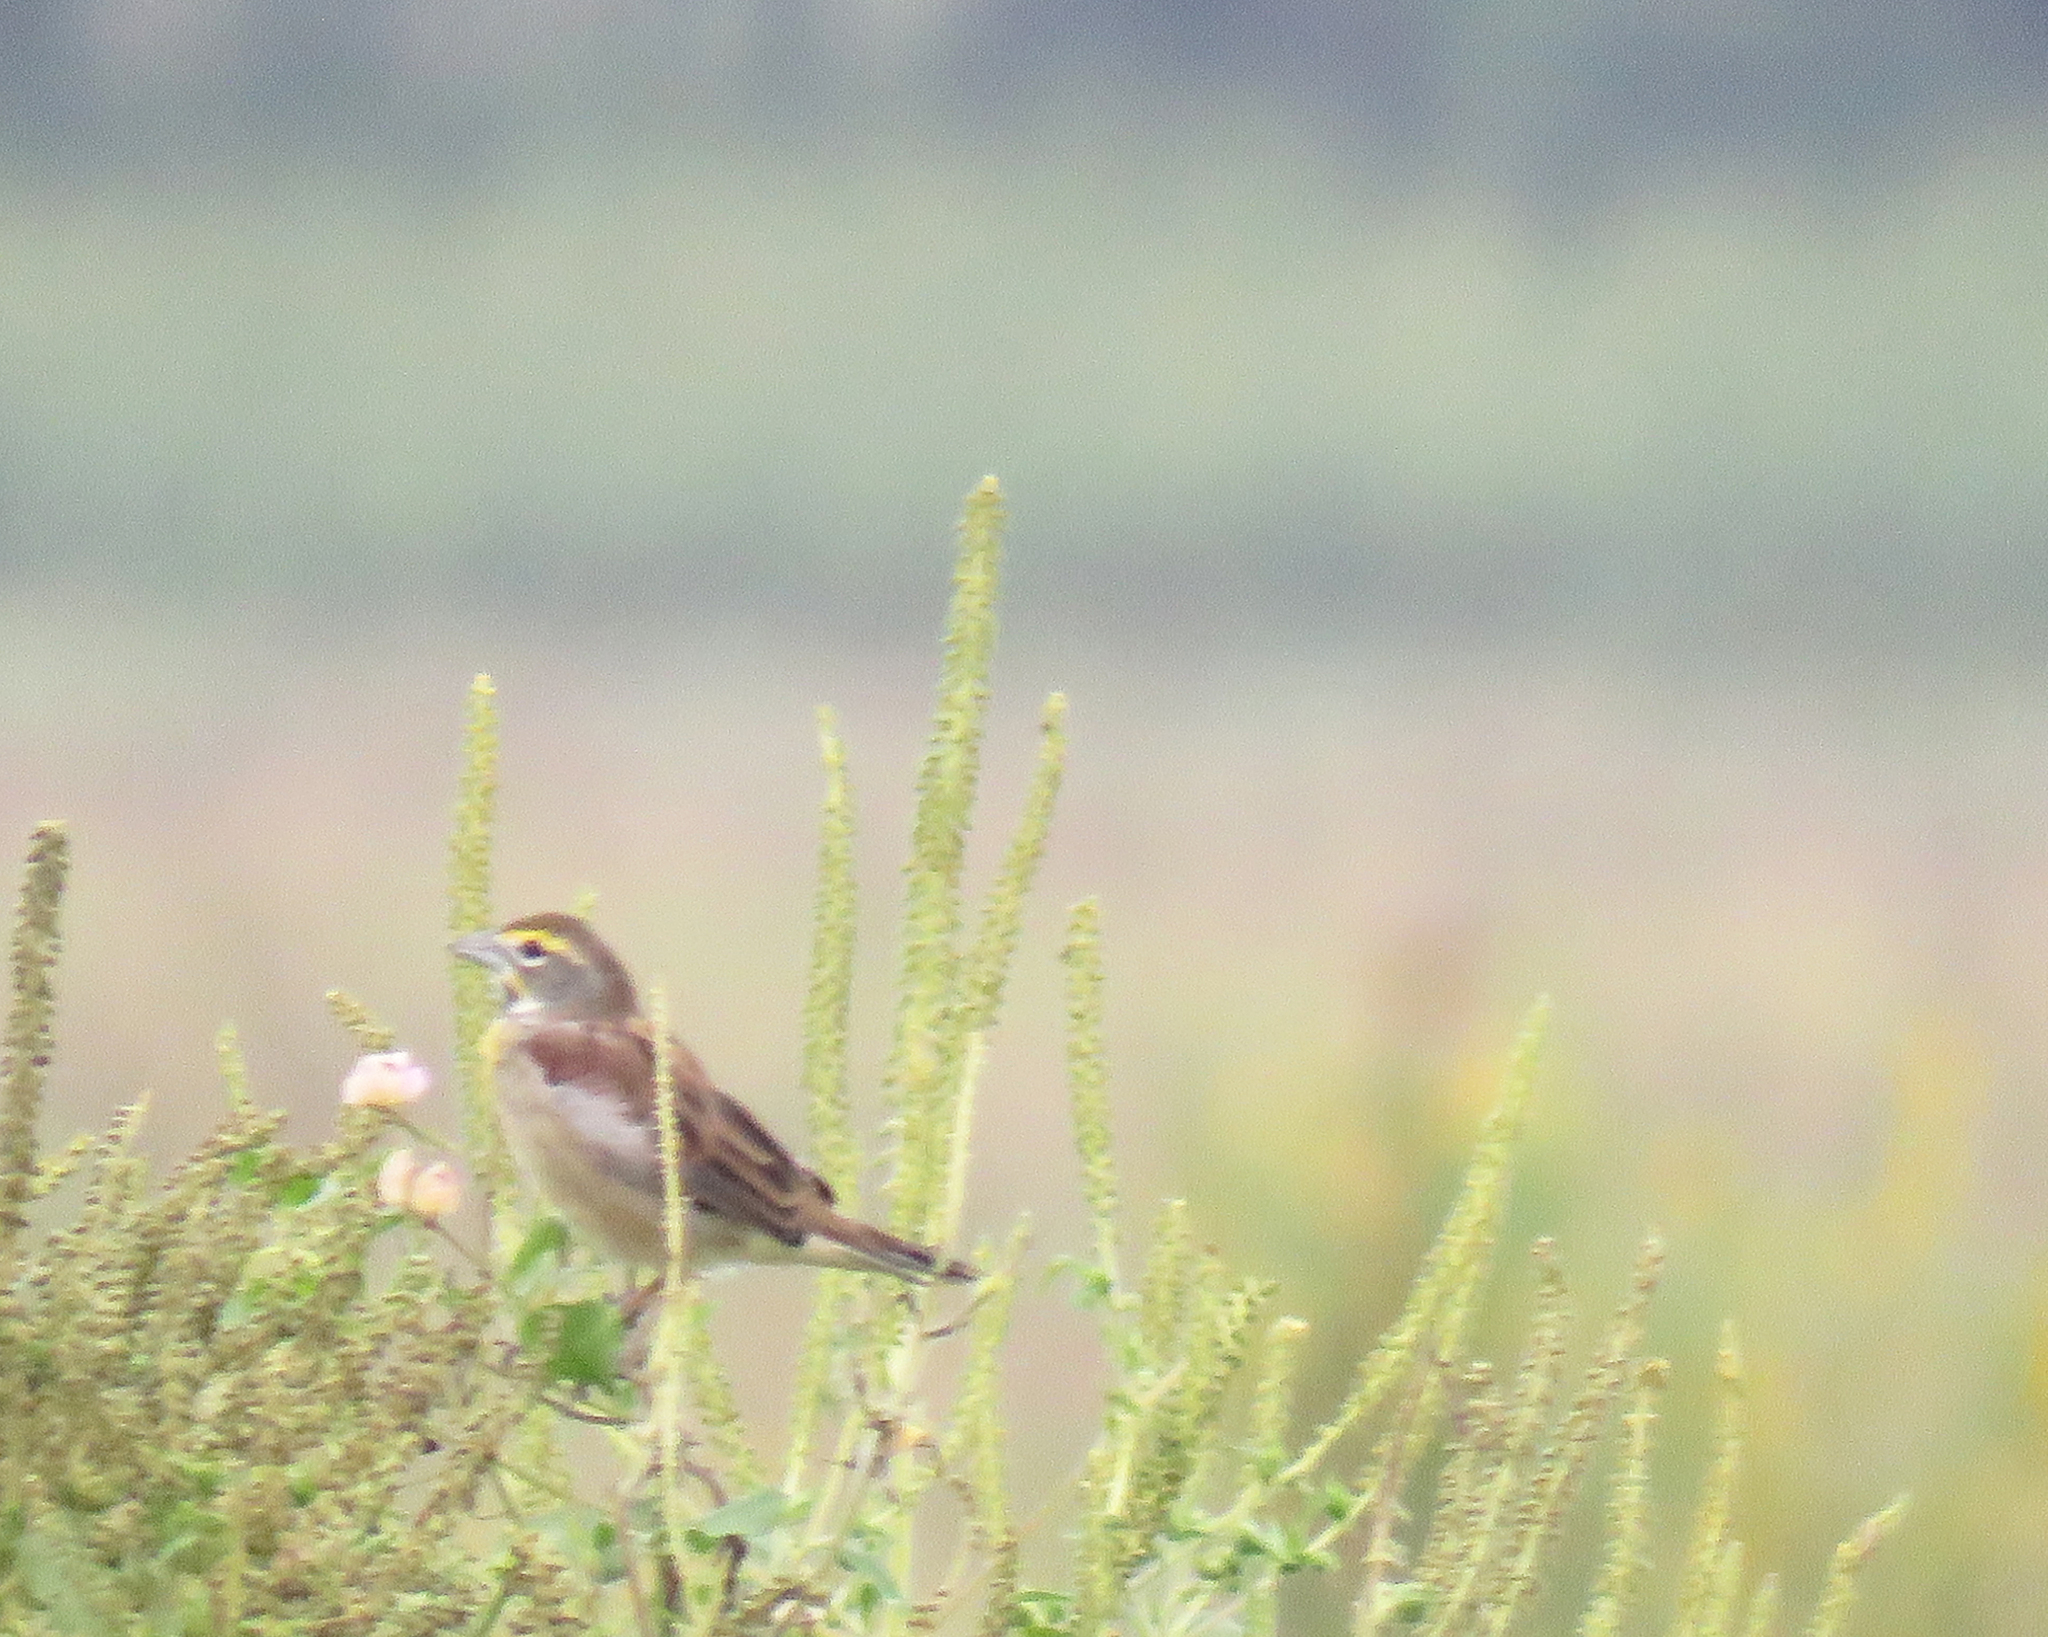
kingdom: Animalia
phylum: Chordata
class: Aves
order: Passeriformes
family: Cardinalidae
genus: Spiza
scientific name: Spiza americana
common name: Dickcissel
